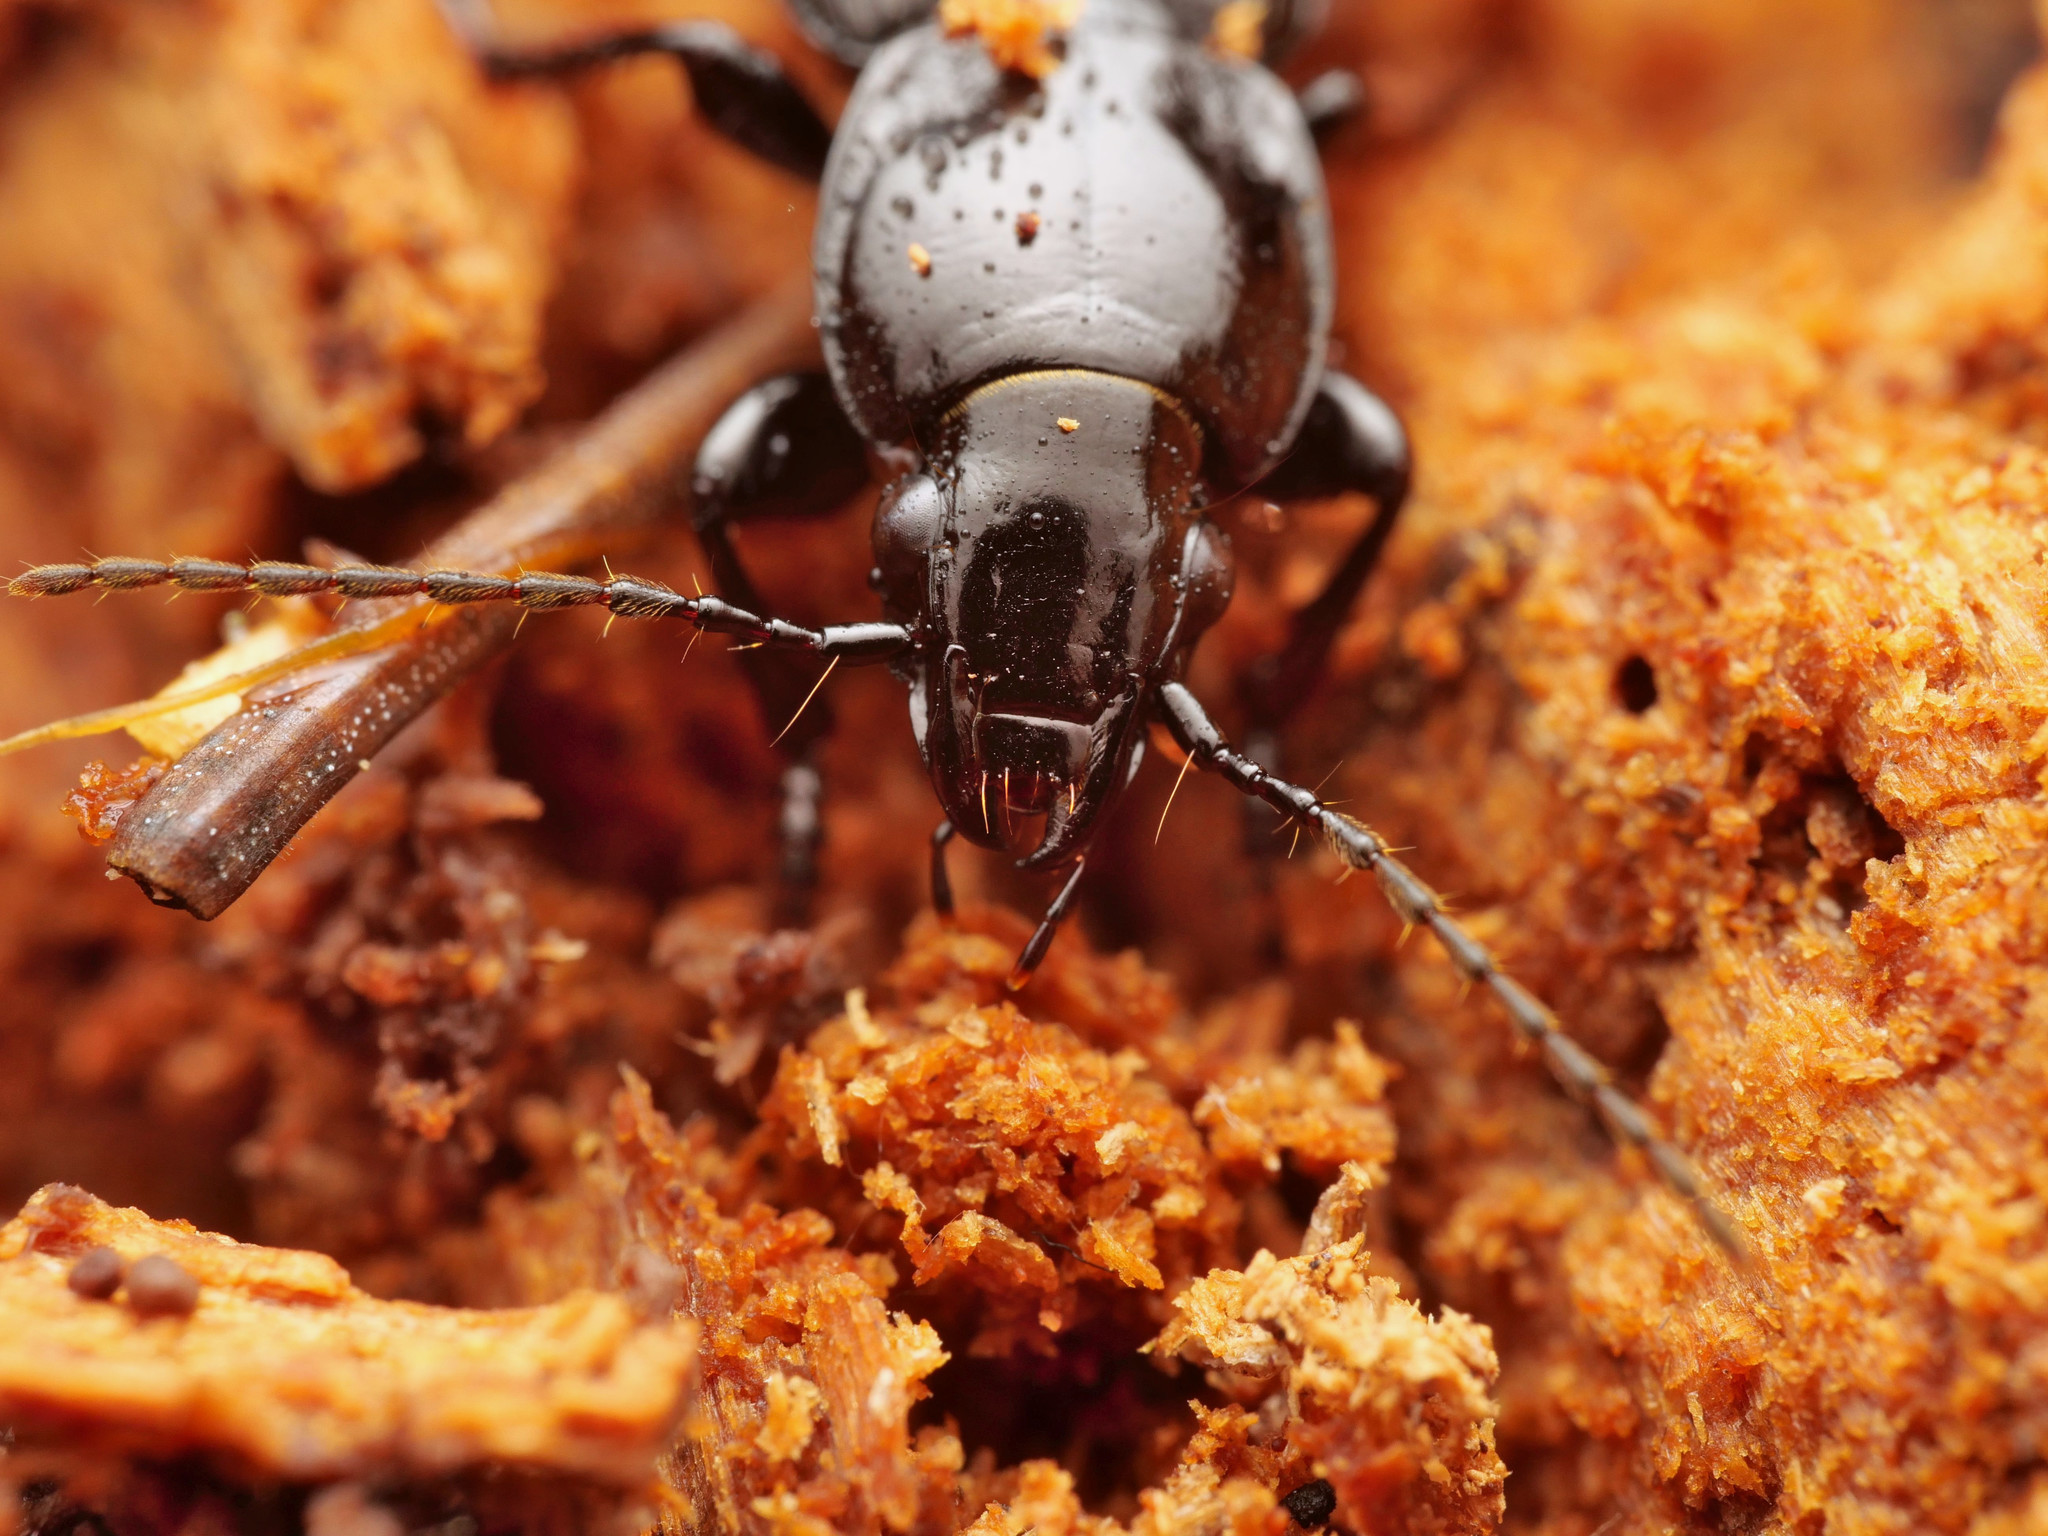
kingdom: Animalia
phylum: Arthropoda
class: Insecta
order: Coleoptera
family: Carabidae
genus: Pterostichus
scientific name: Pterostichus aethiops
